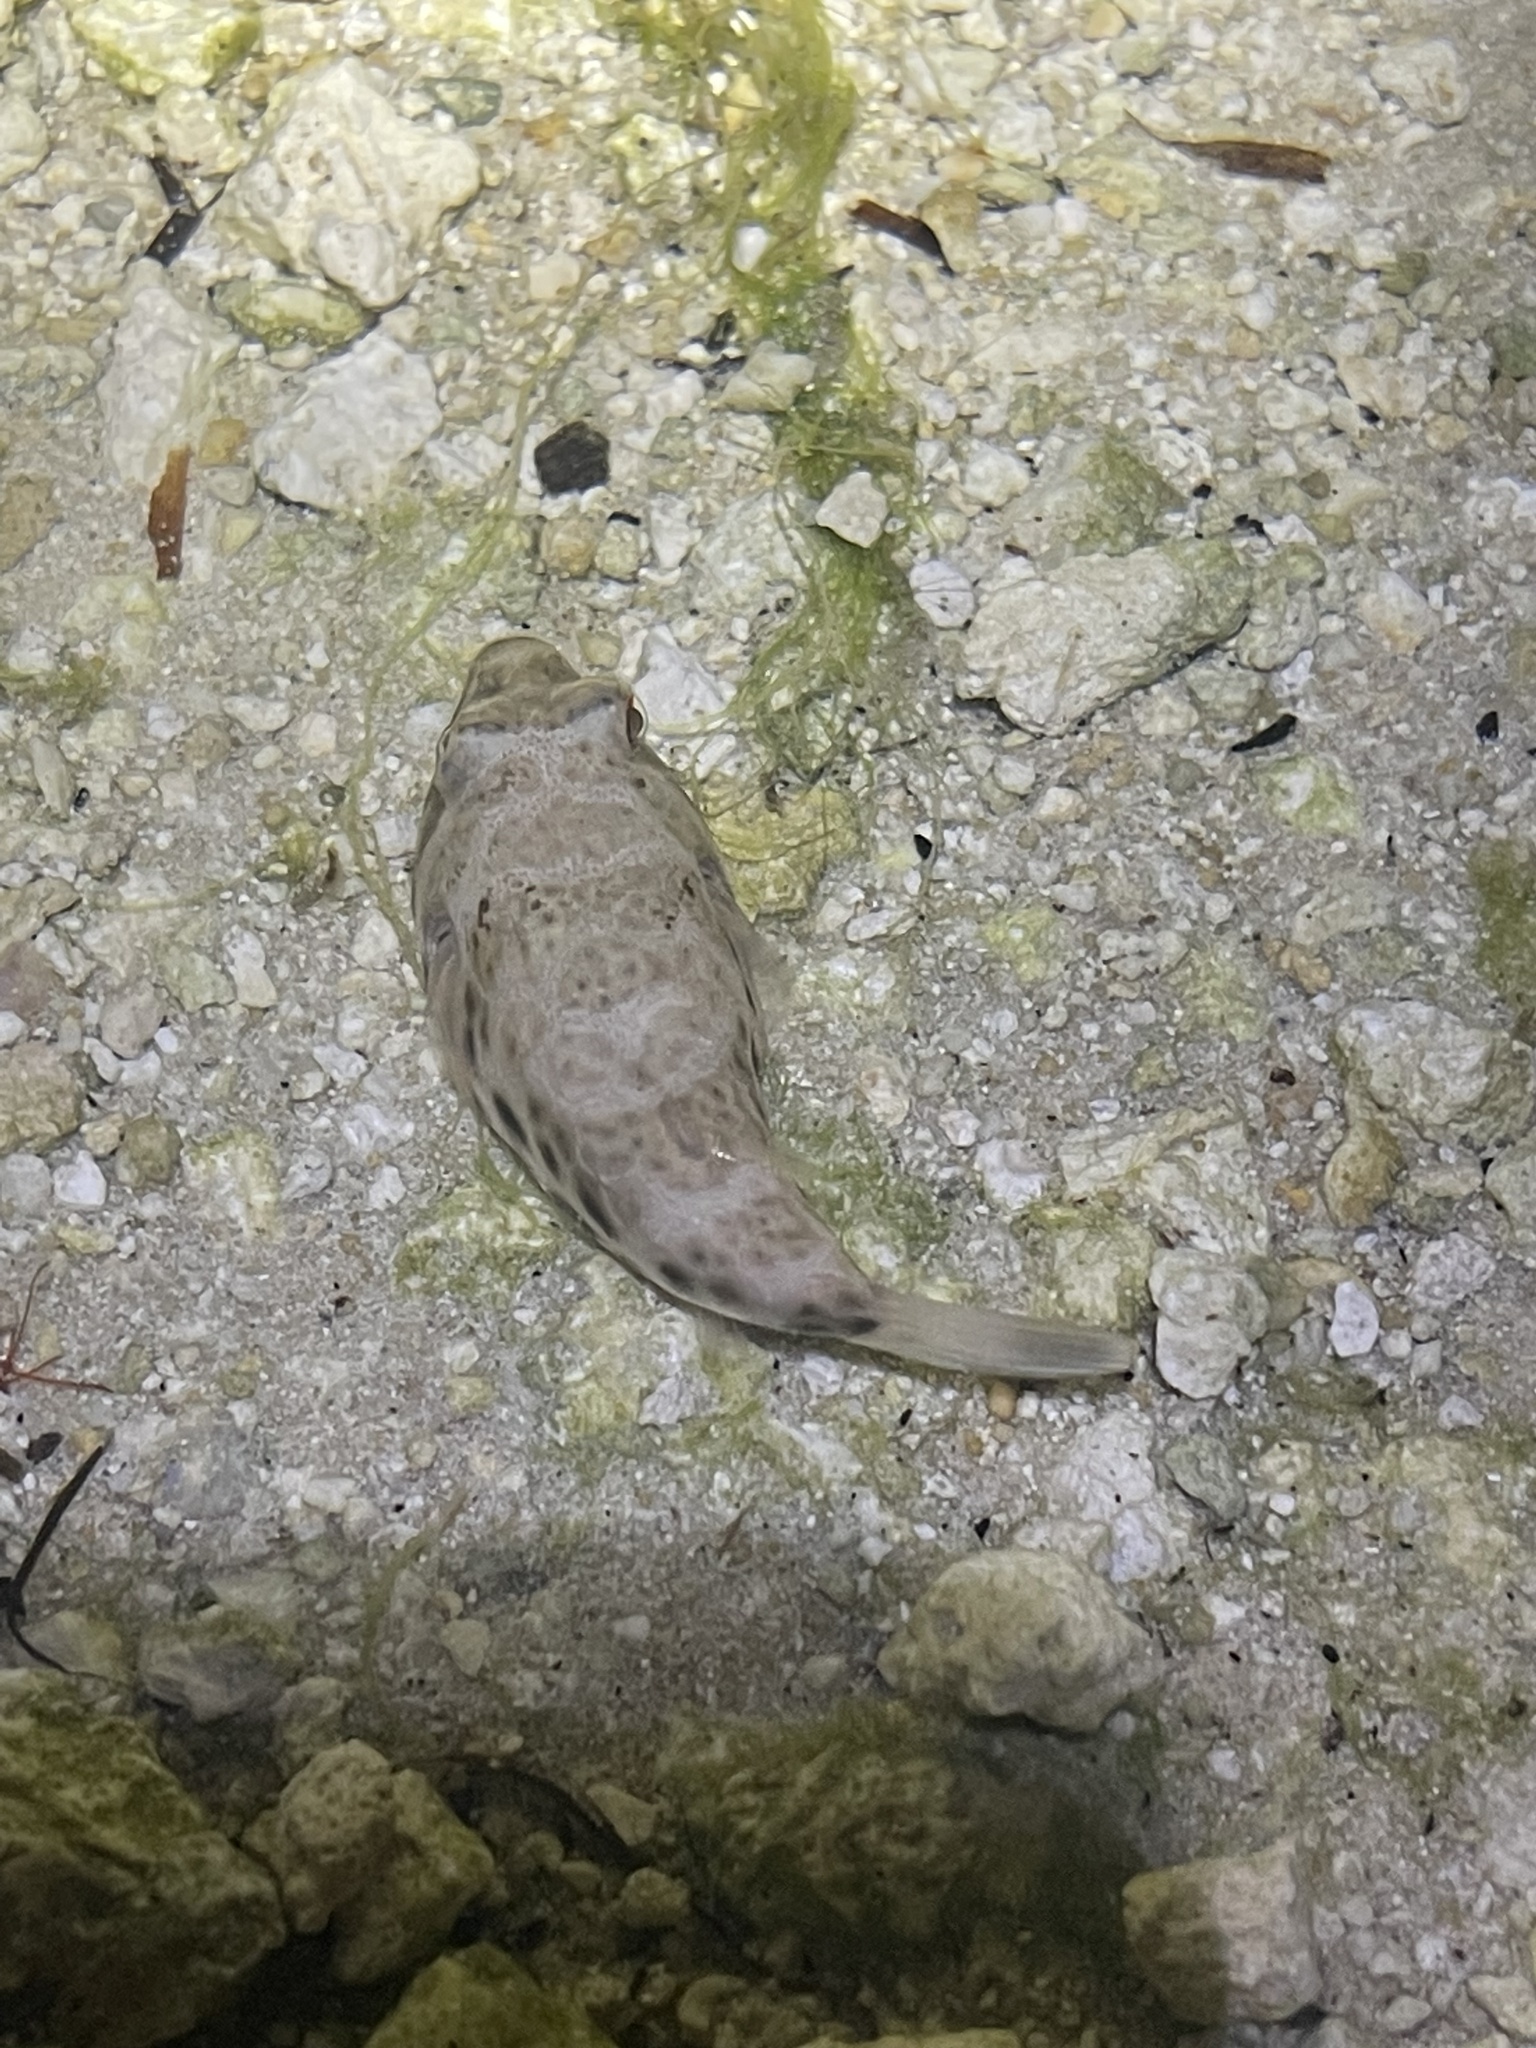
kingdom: Animalia
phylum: Chordata
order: Tetraodontiformes
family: Tetraodontidae
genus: Sphoeroides
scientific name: Sphoeroides testudineus
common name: Checkered puffer
